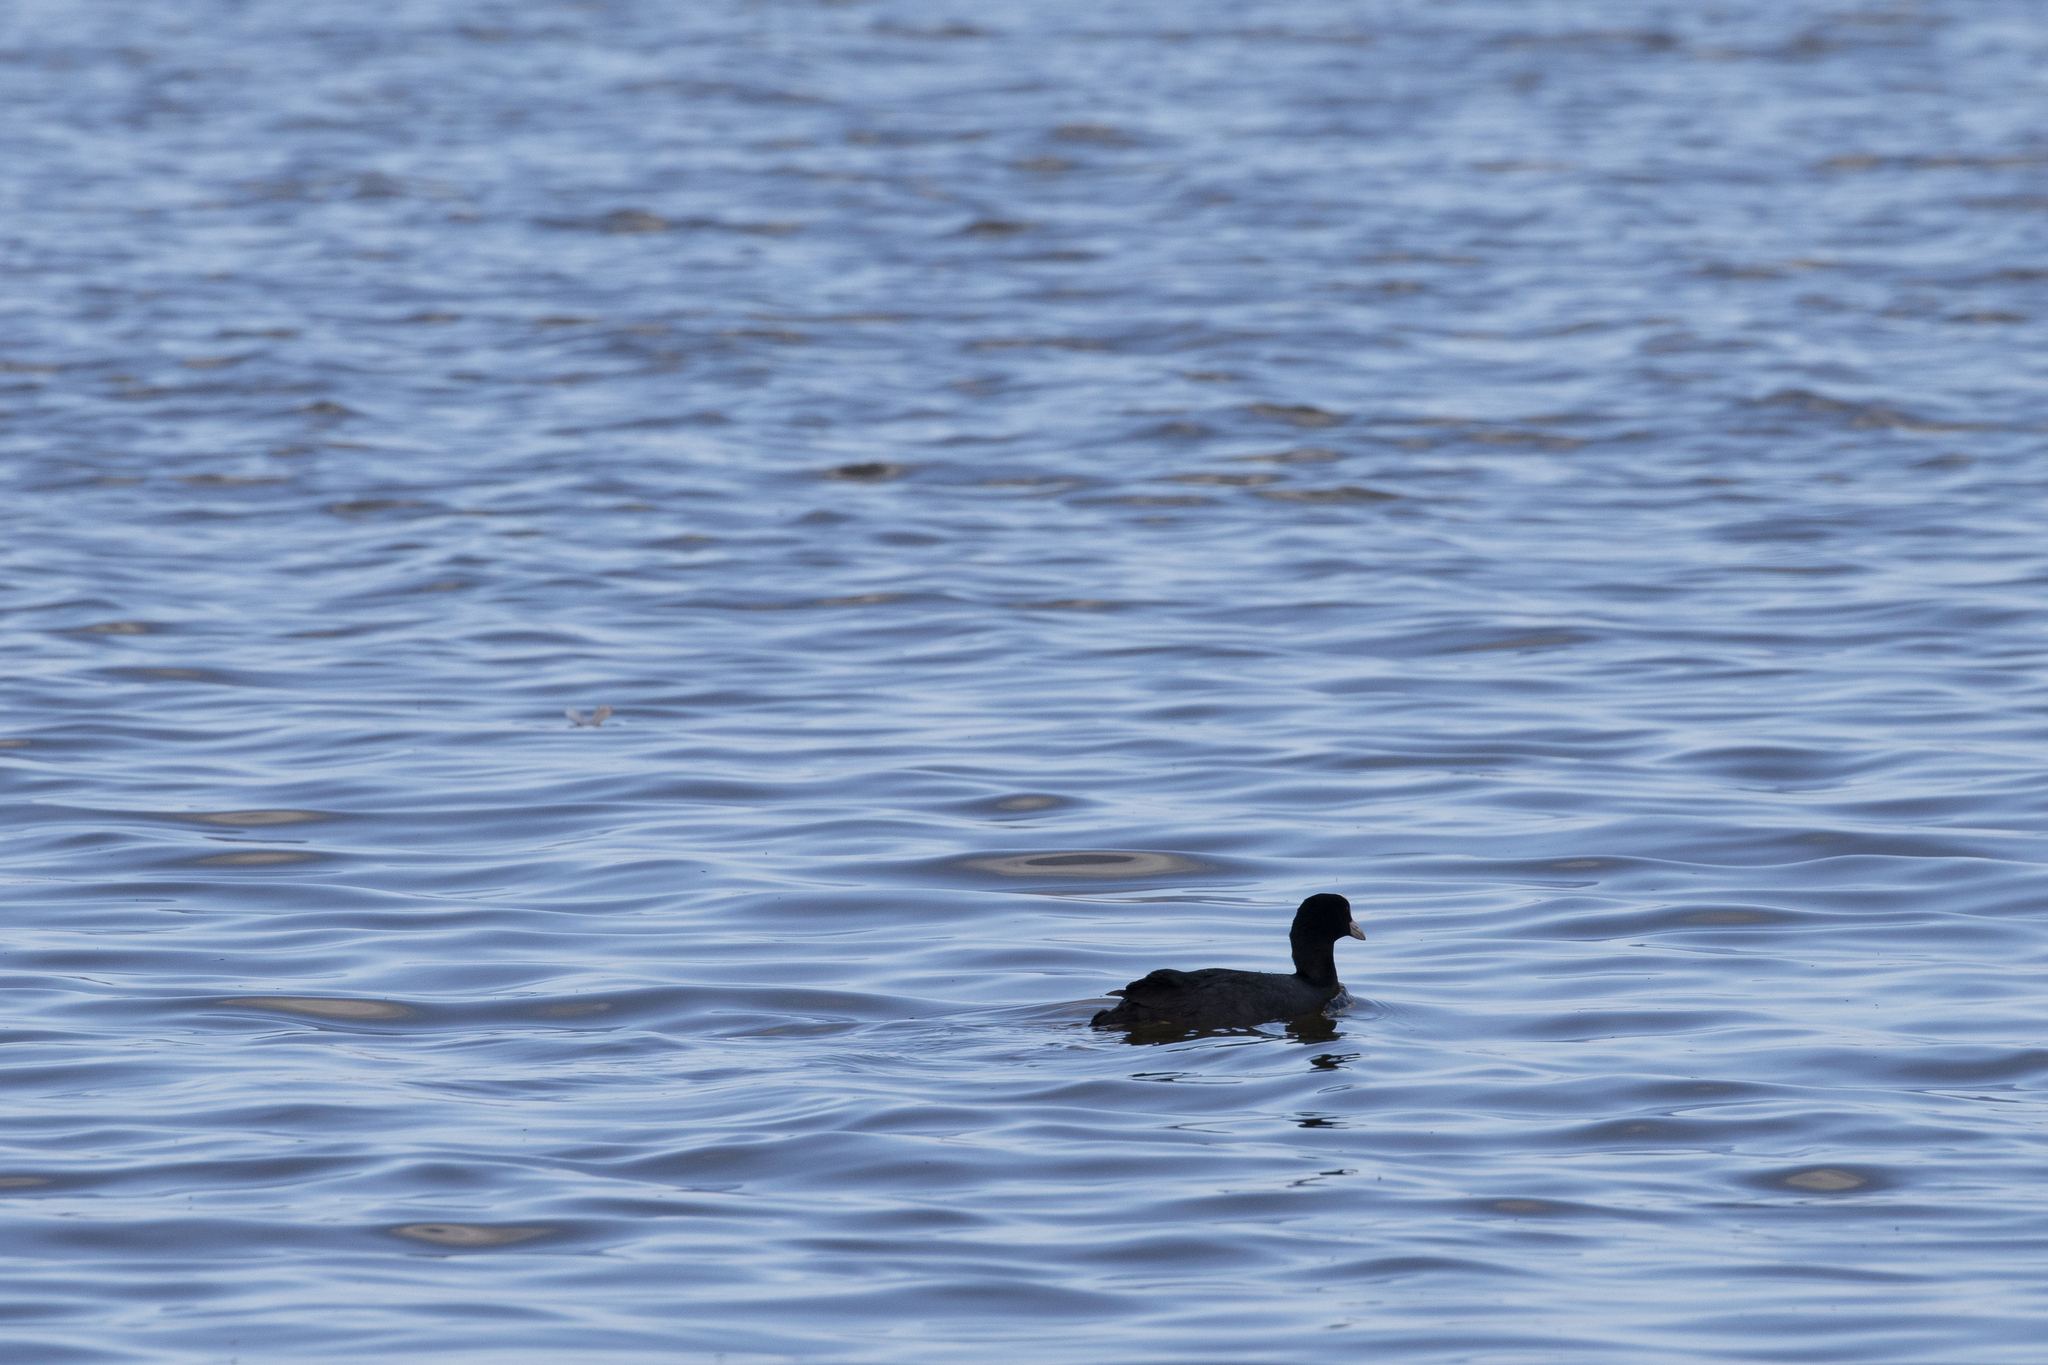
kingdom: Animalia
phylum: Chordata
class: Aves
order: Gruiformes
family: Rallidae
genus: Fulica
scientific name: Fulica atra
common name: Eurasian coot
